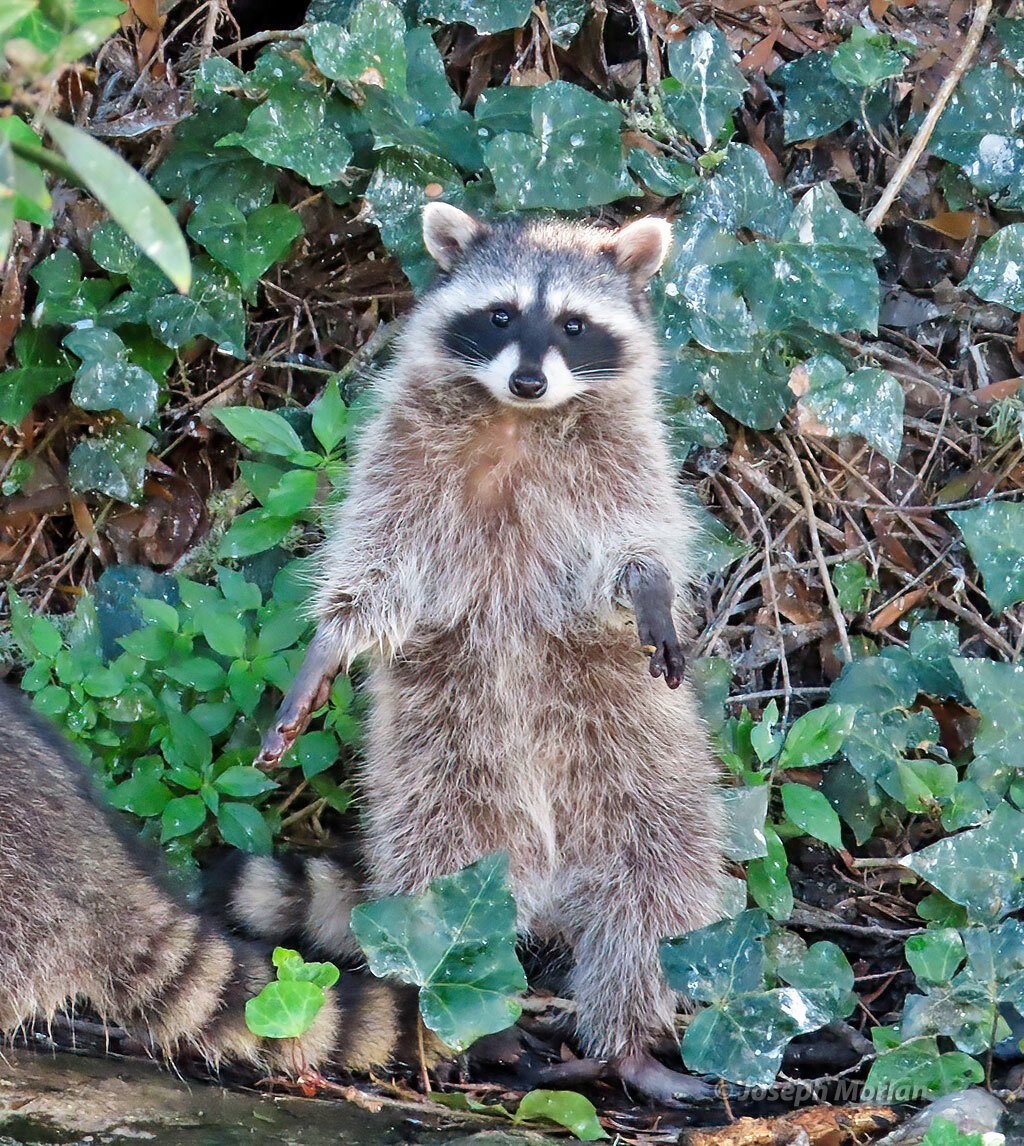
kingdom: Animalia
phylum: Chordata
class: Mammalia
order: Carnivora
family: Procyonidae
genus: Procyon
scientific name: Procyon lotor
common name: Raccoon
